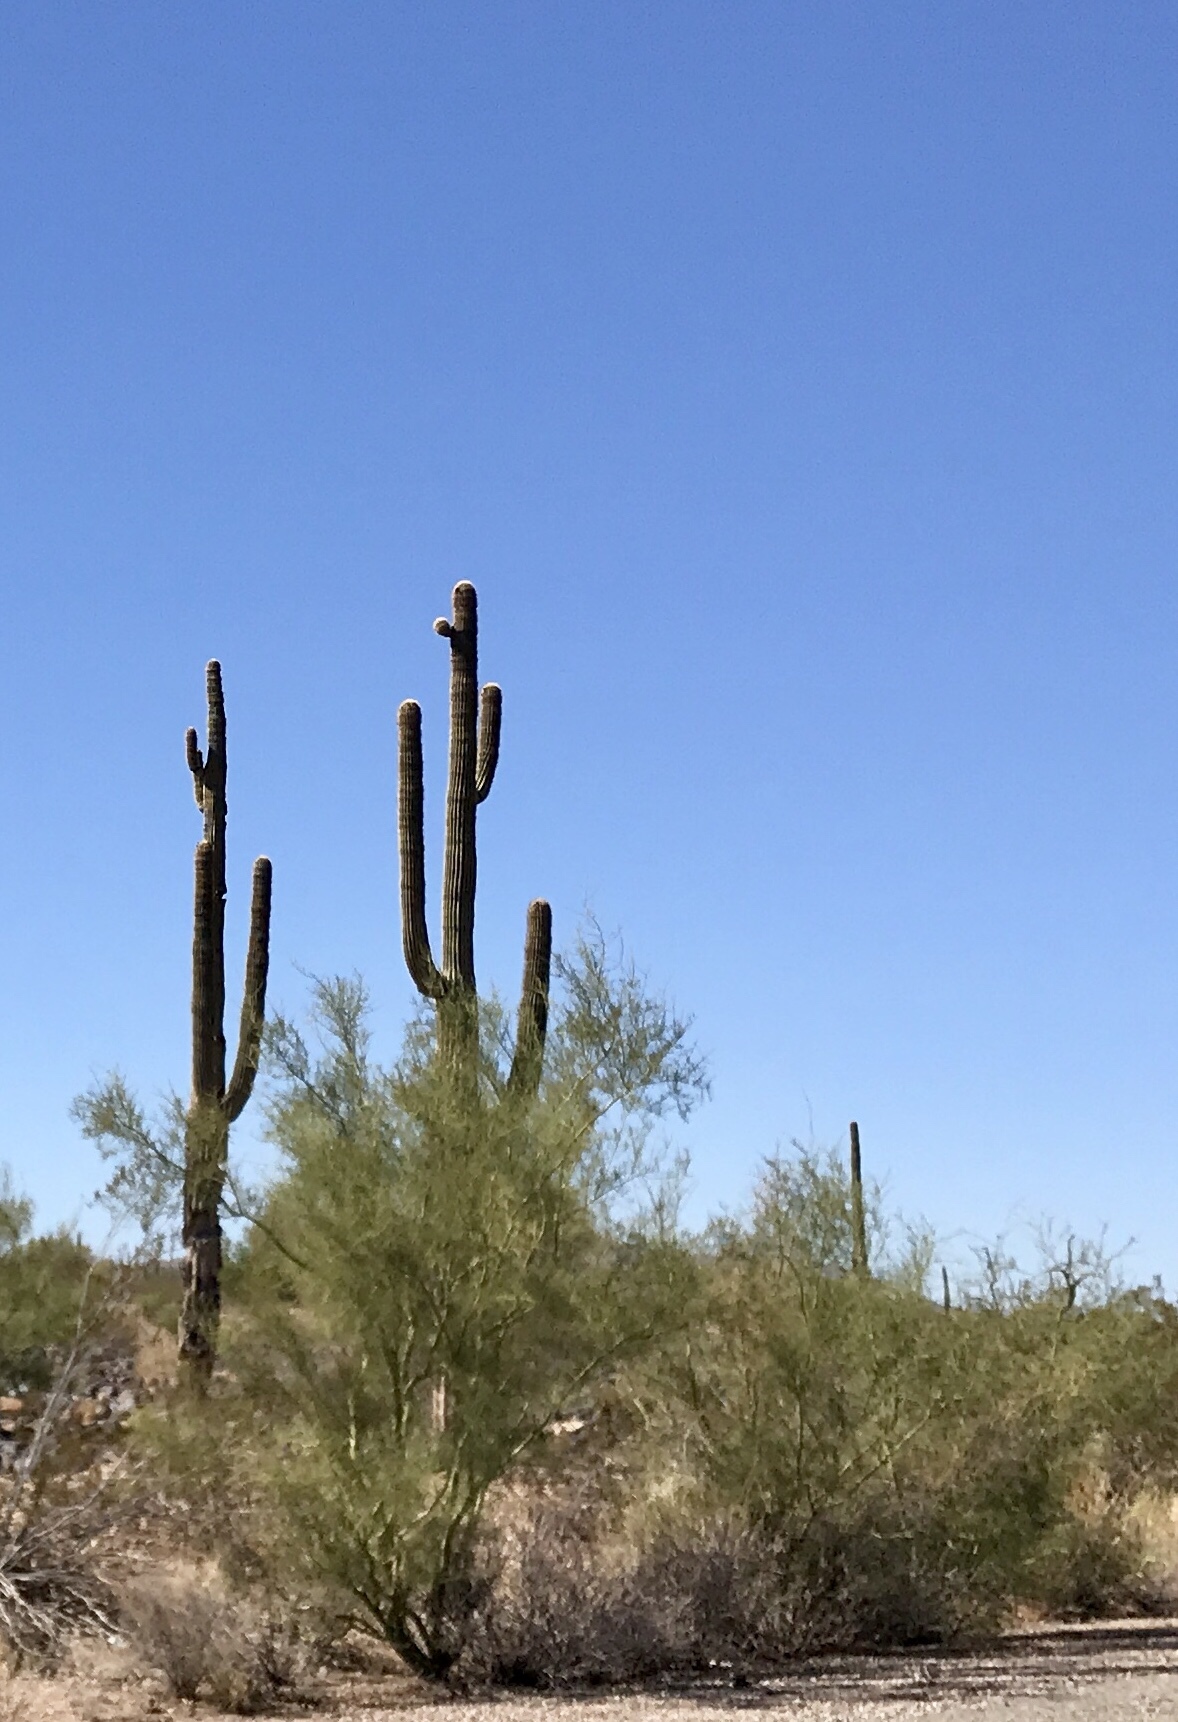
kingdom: Plantae
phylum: Tracheophyta
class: Magnoliopsida
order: Fabales
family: Fabaceae
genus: Parkinsonia
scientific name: Parkinsonia florida
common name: Blue paloverde
